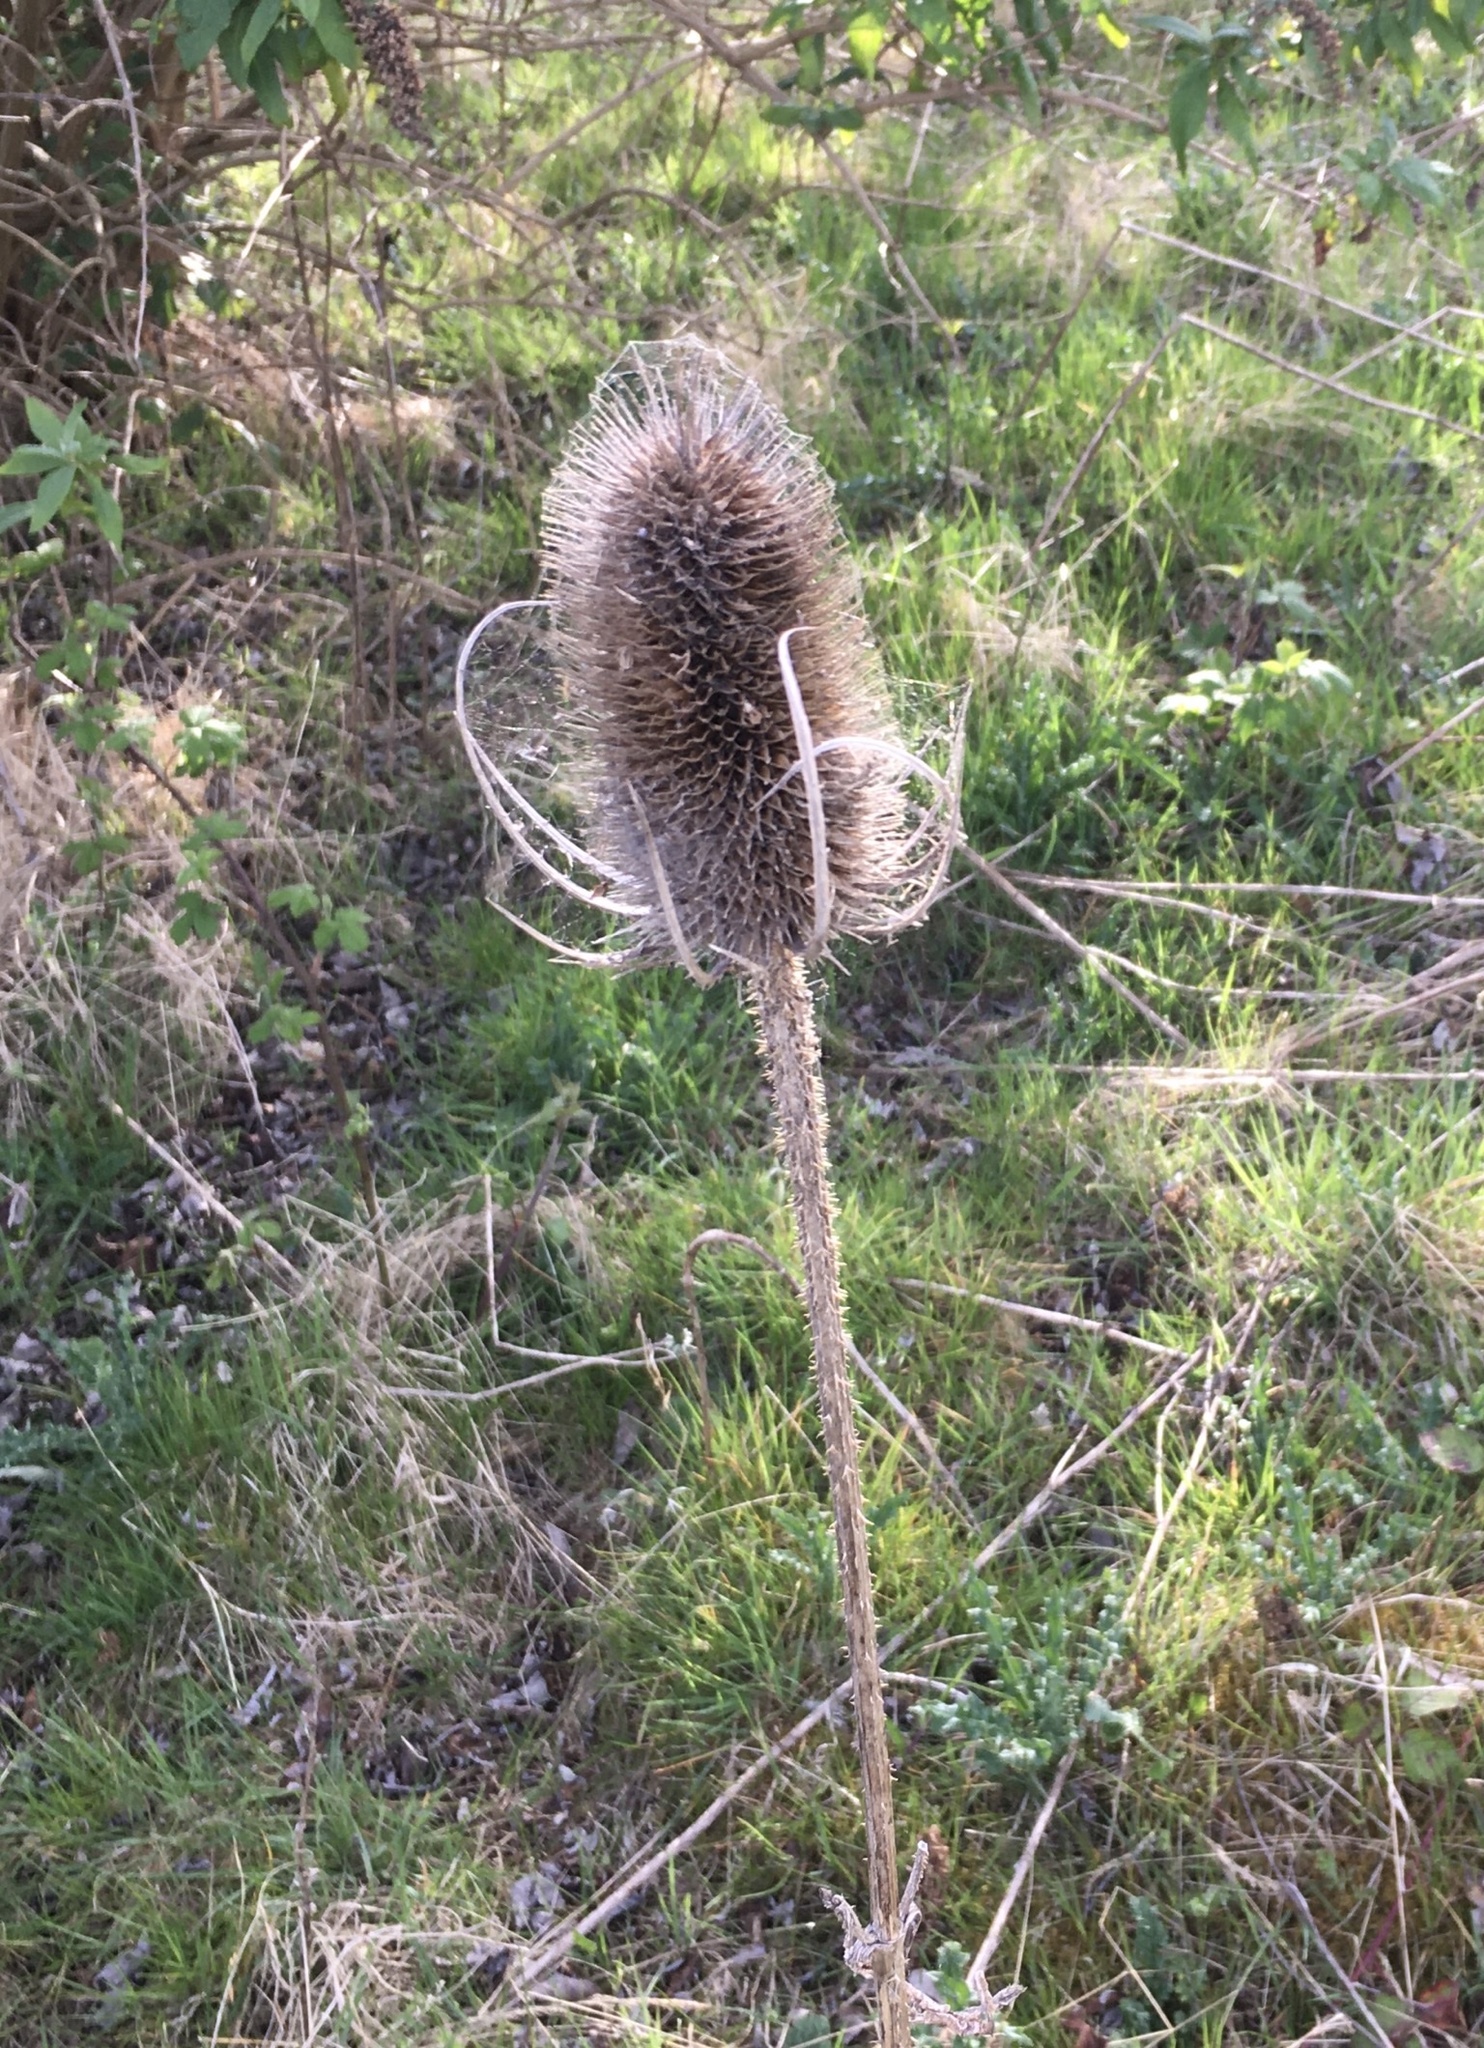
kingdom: Plantae
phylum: Tracheophyta
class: Magnoliopsida
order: Dipsacales
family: Caprifoliaceae
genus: Dipsacus
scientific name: Dipsacus fullonum
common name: Teasel
